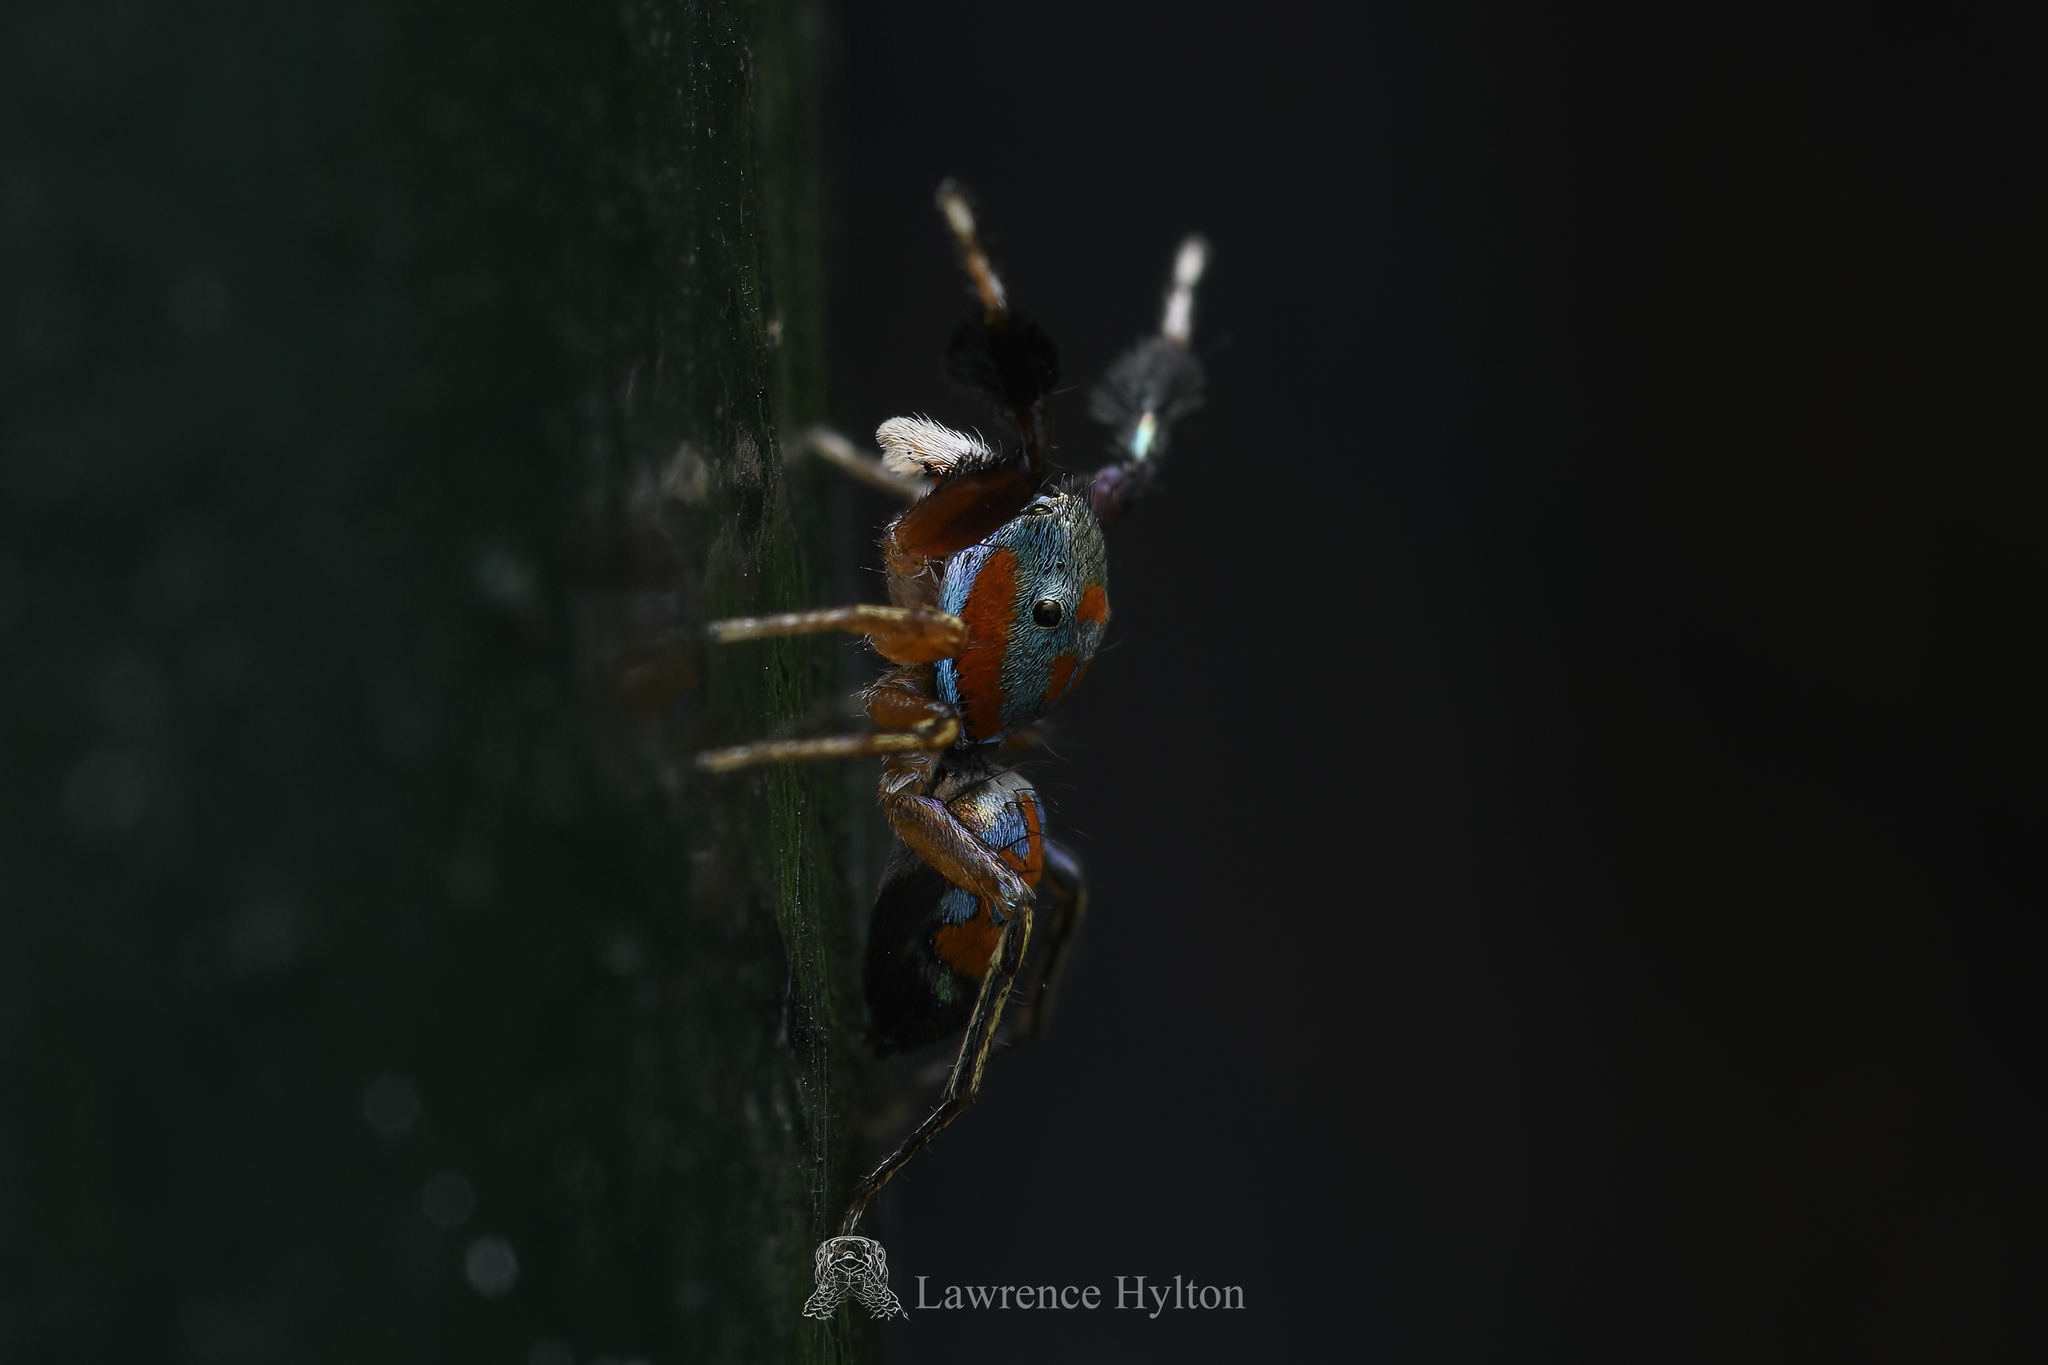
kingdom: Animalia
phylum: Arthropoda
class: Arachnida
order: Araneae
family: Salticidae
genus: Siler
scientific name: Siler collingwoodi
